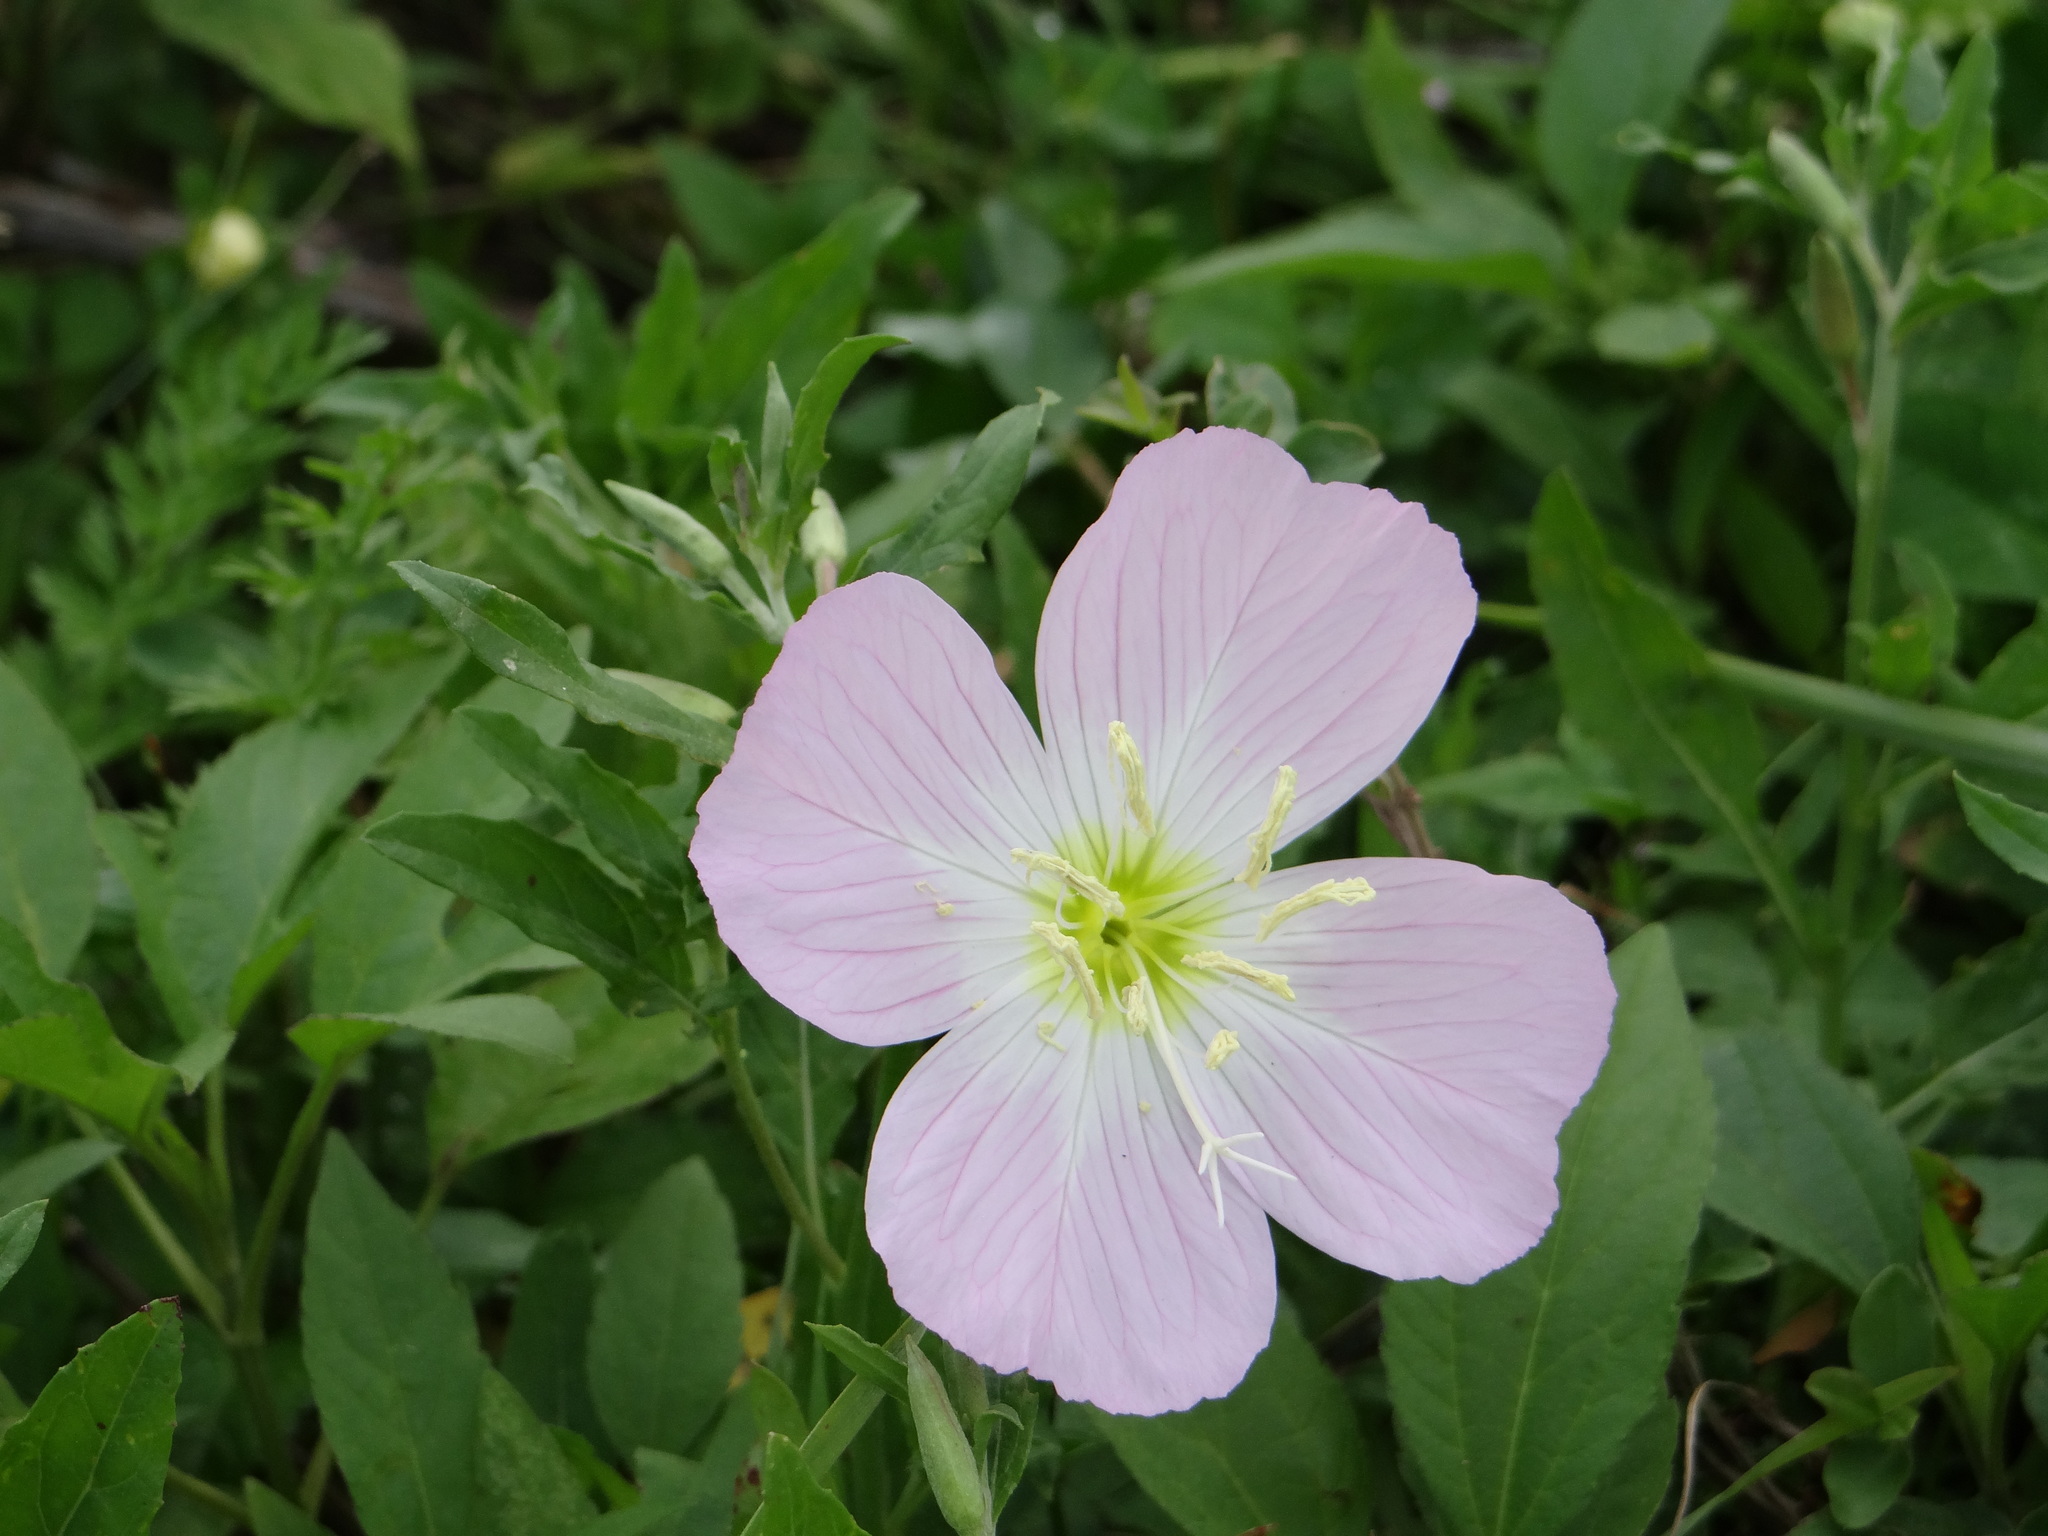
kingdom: Plantae
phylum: Tracheophyta
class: Magnoliopsida
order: Myrtales
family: Onagraceae
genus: Oenothera
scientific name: Oenothera speciosa
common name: White evening-primrose
